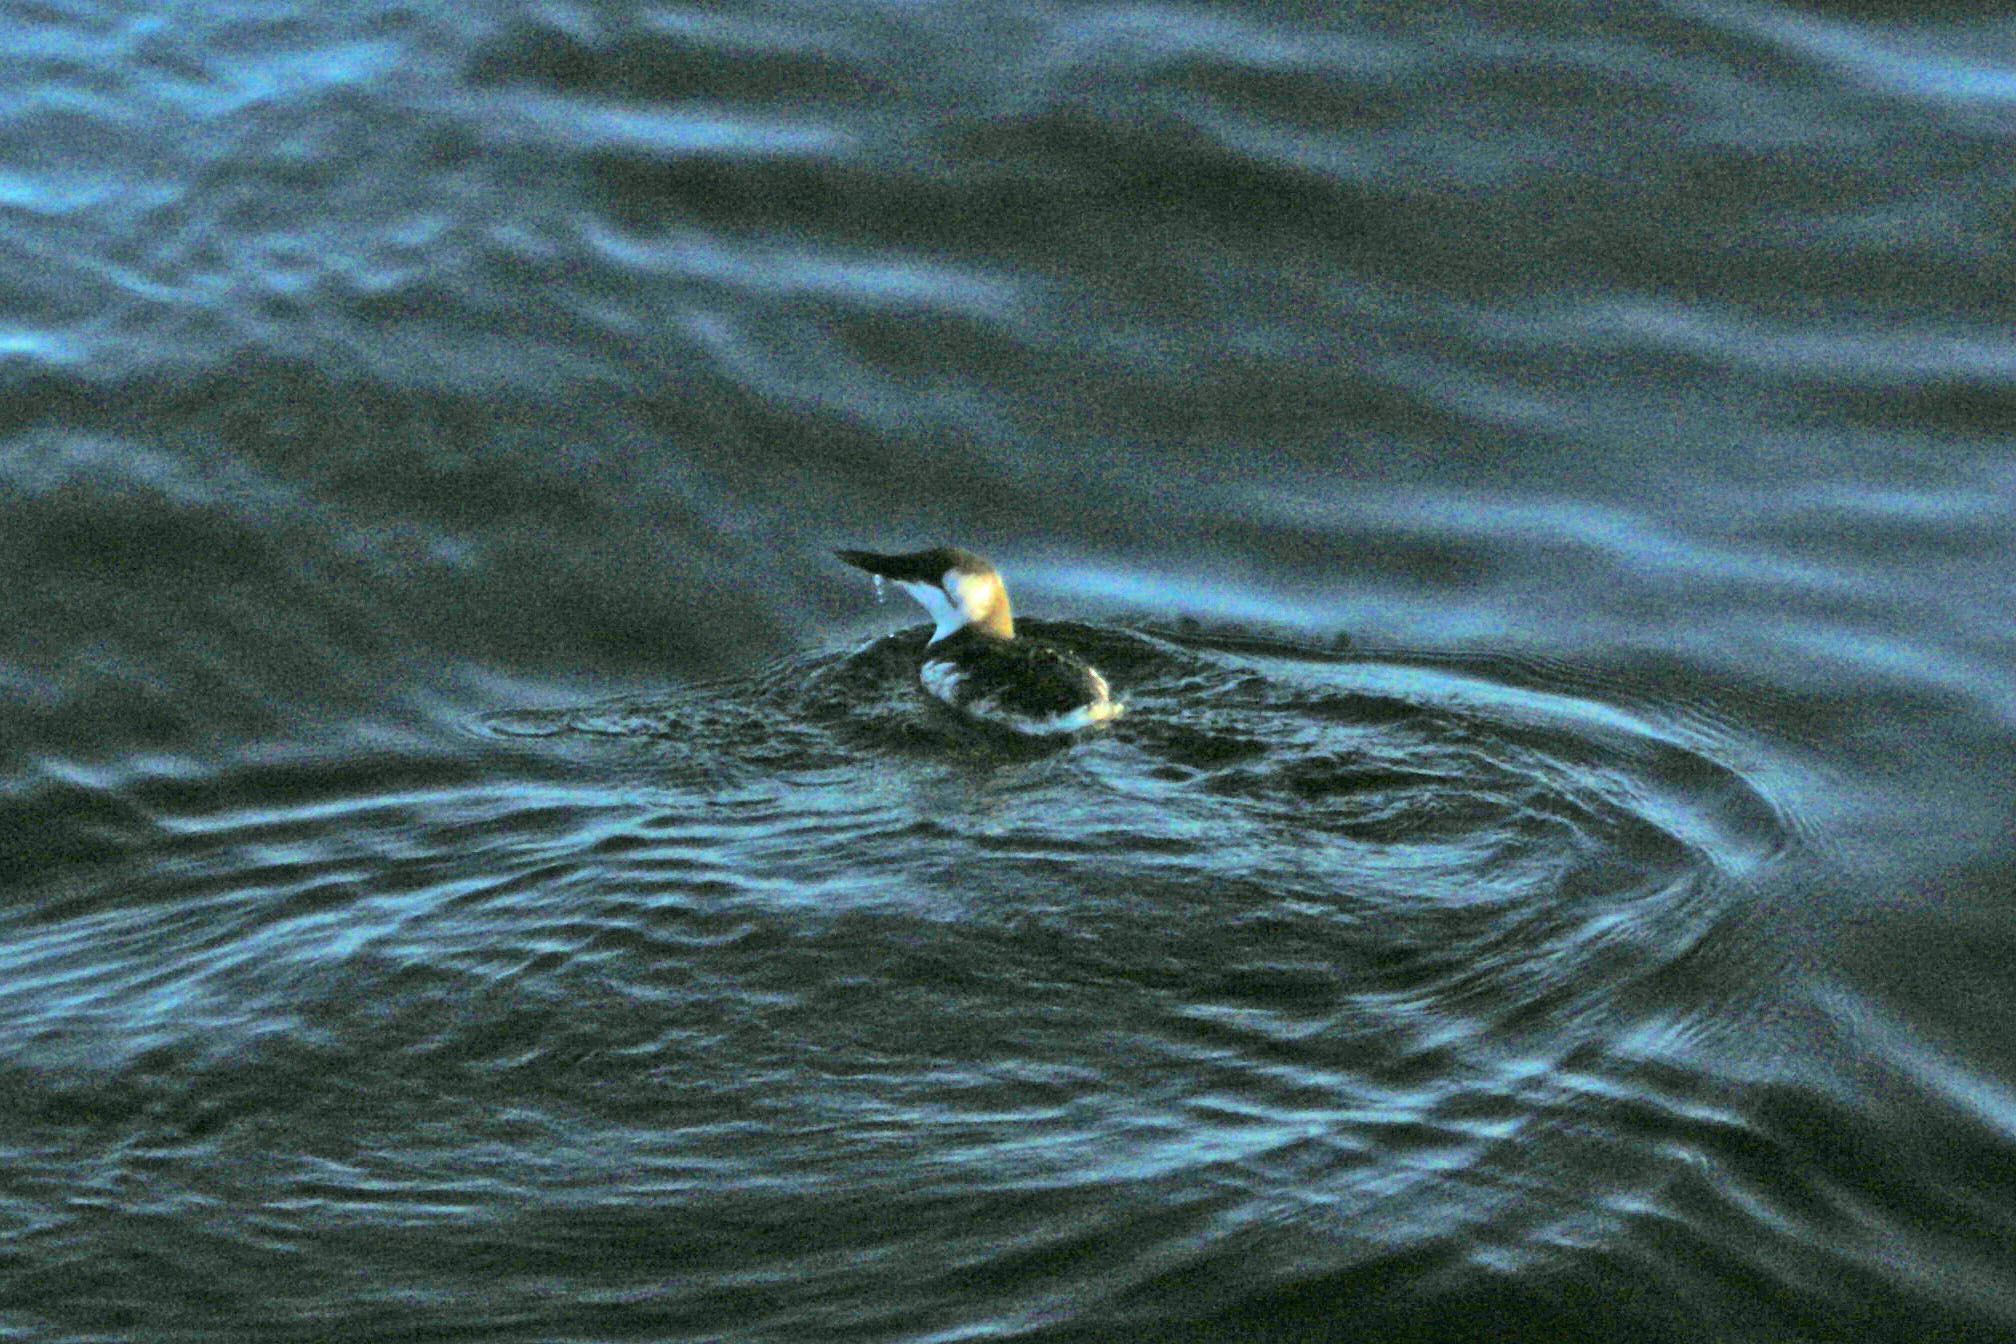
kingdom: Animalia
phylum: Chordata
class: Aves
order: Charadriiformes
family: Alcidae
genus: Uria
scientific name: Uria aalge
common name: Common murre
